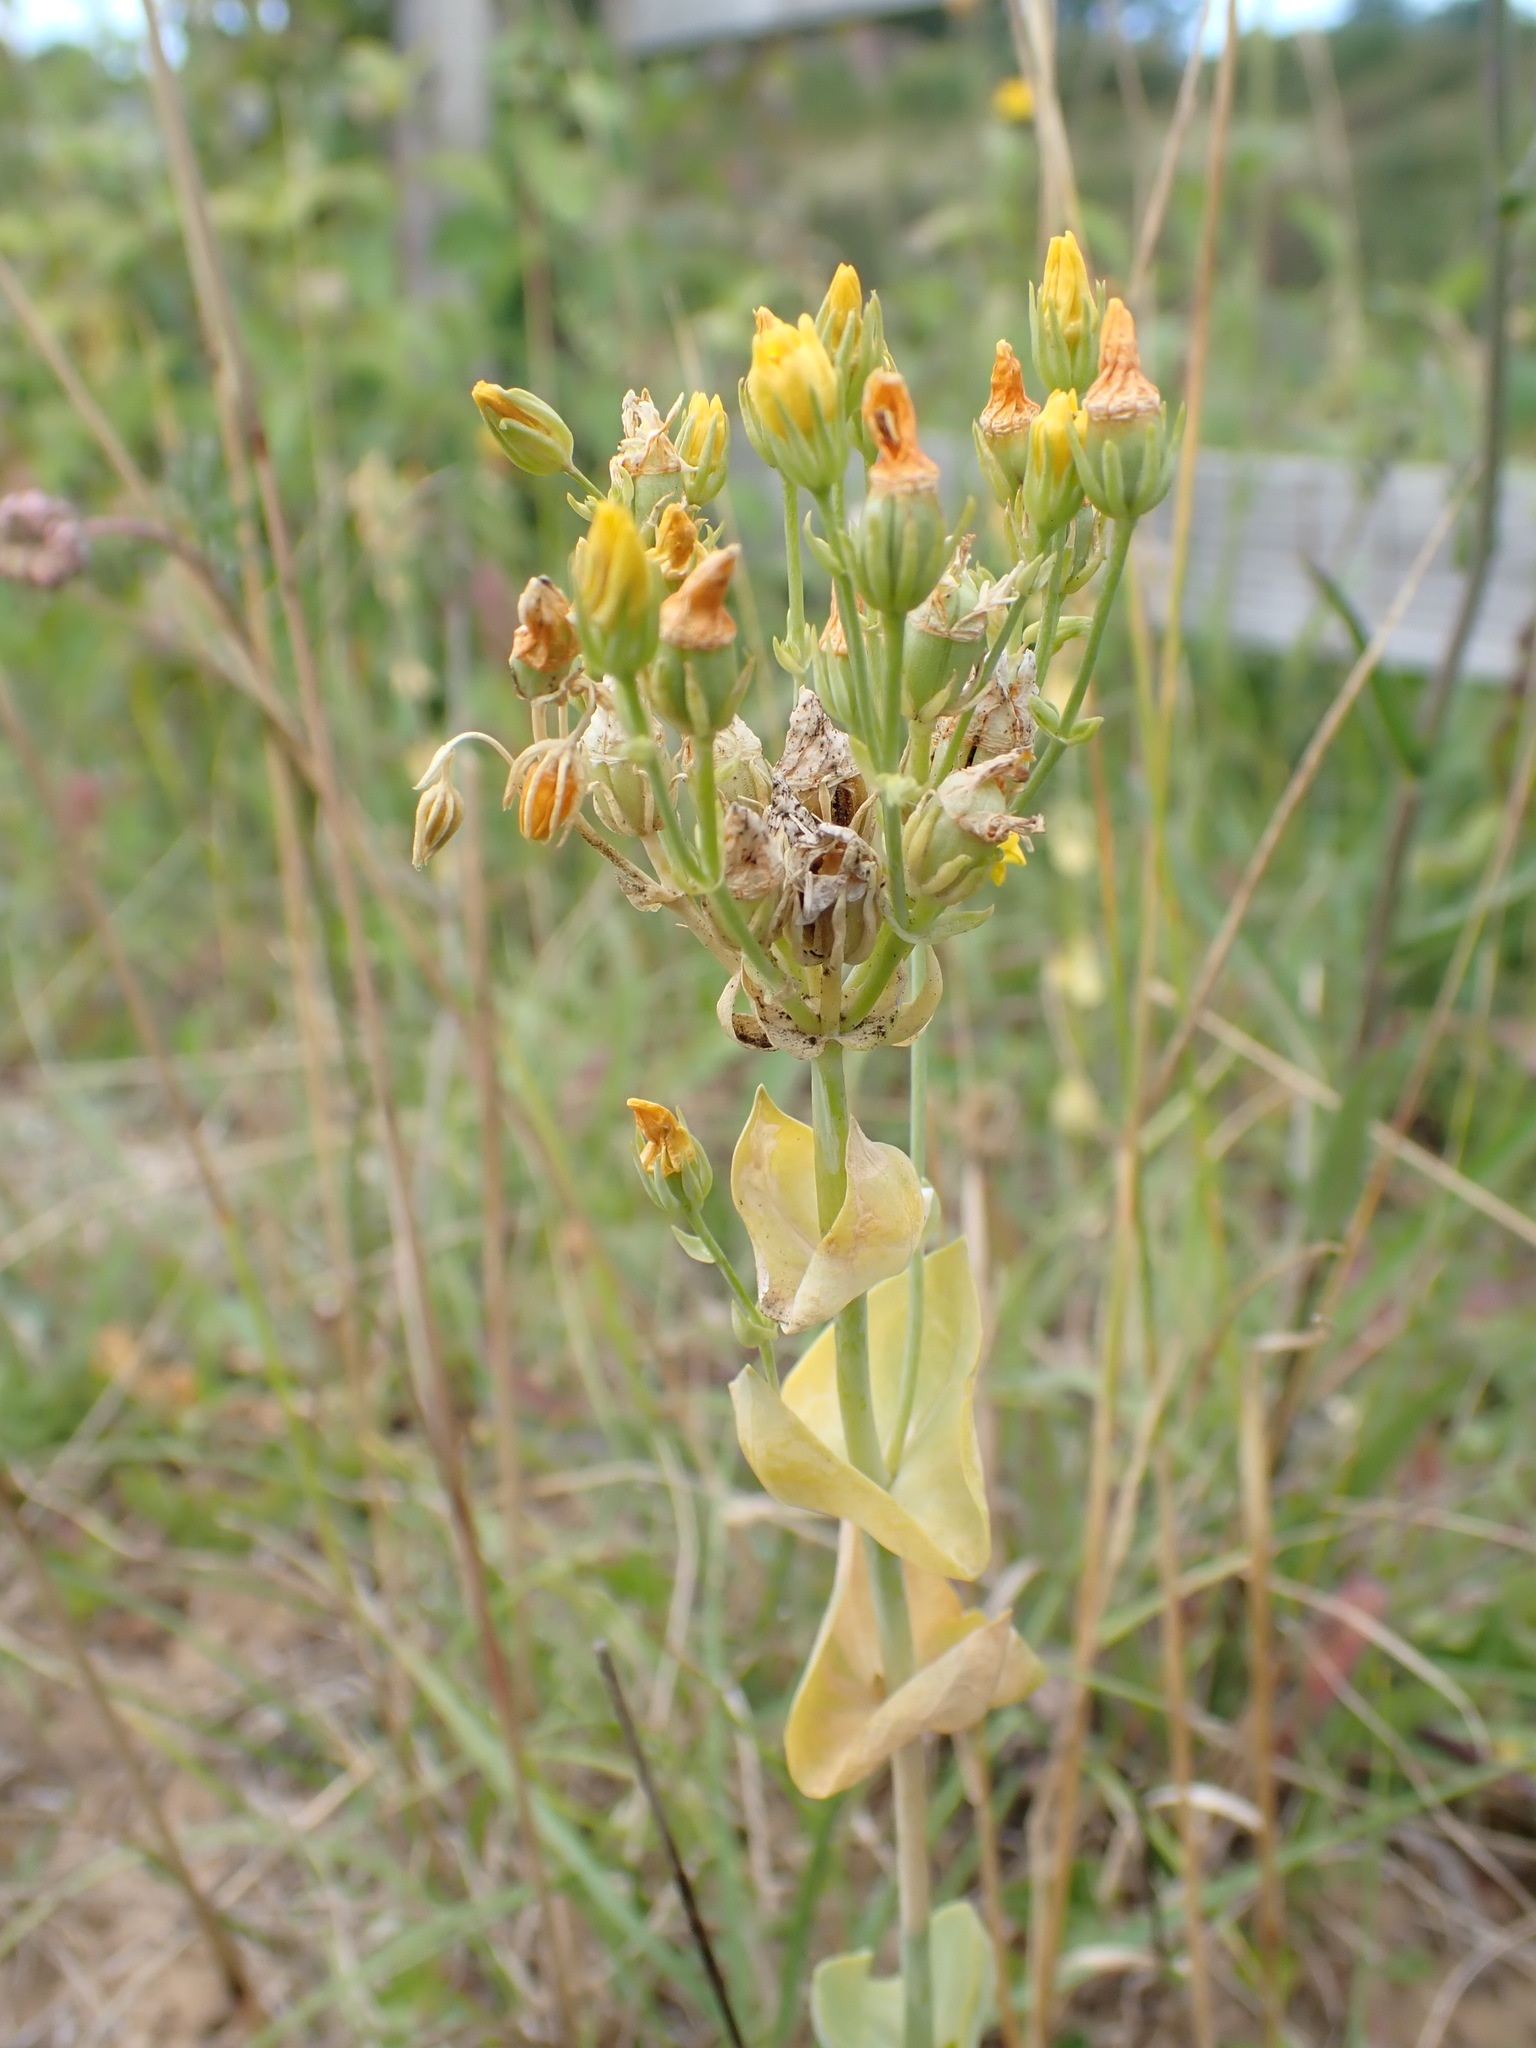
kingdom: Plantae
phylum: Tracheophyta
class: Magnoliopsida
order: Gentianales
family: Gentianaceae
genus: Blackstonia
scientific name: Blackstonia perfoliata
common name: Yellow-wort
